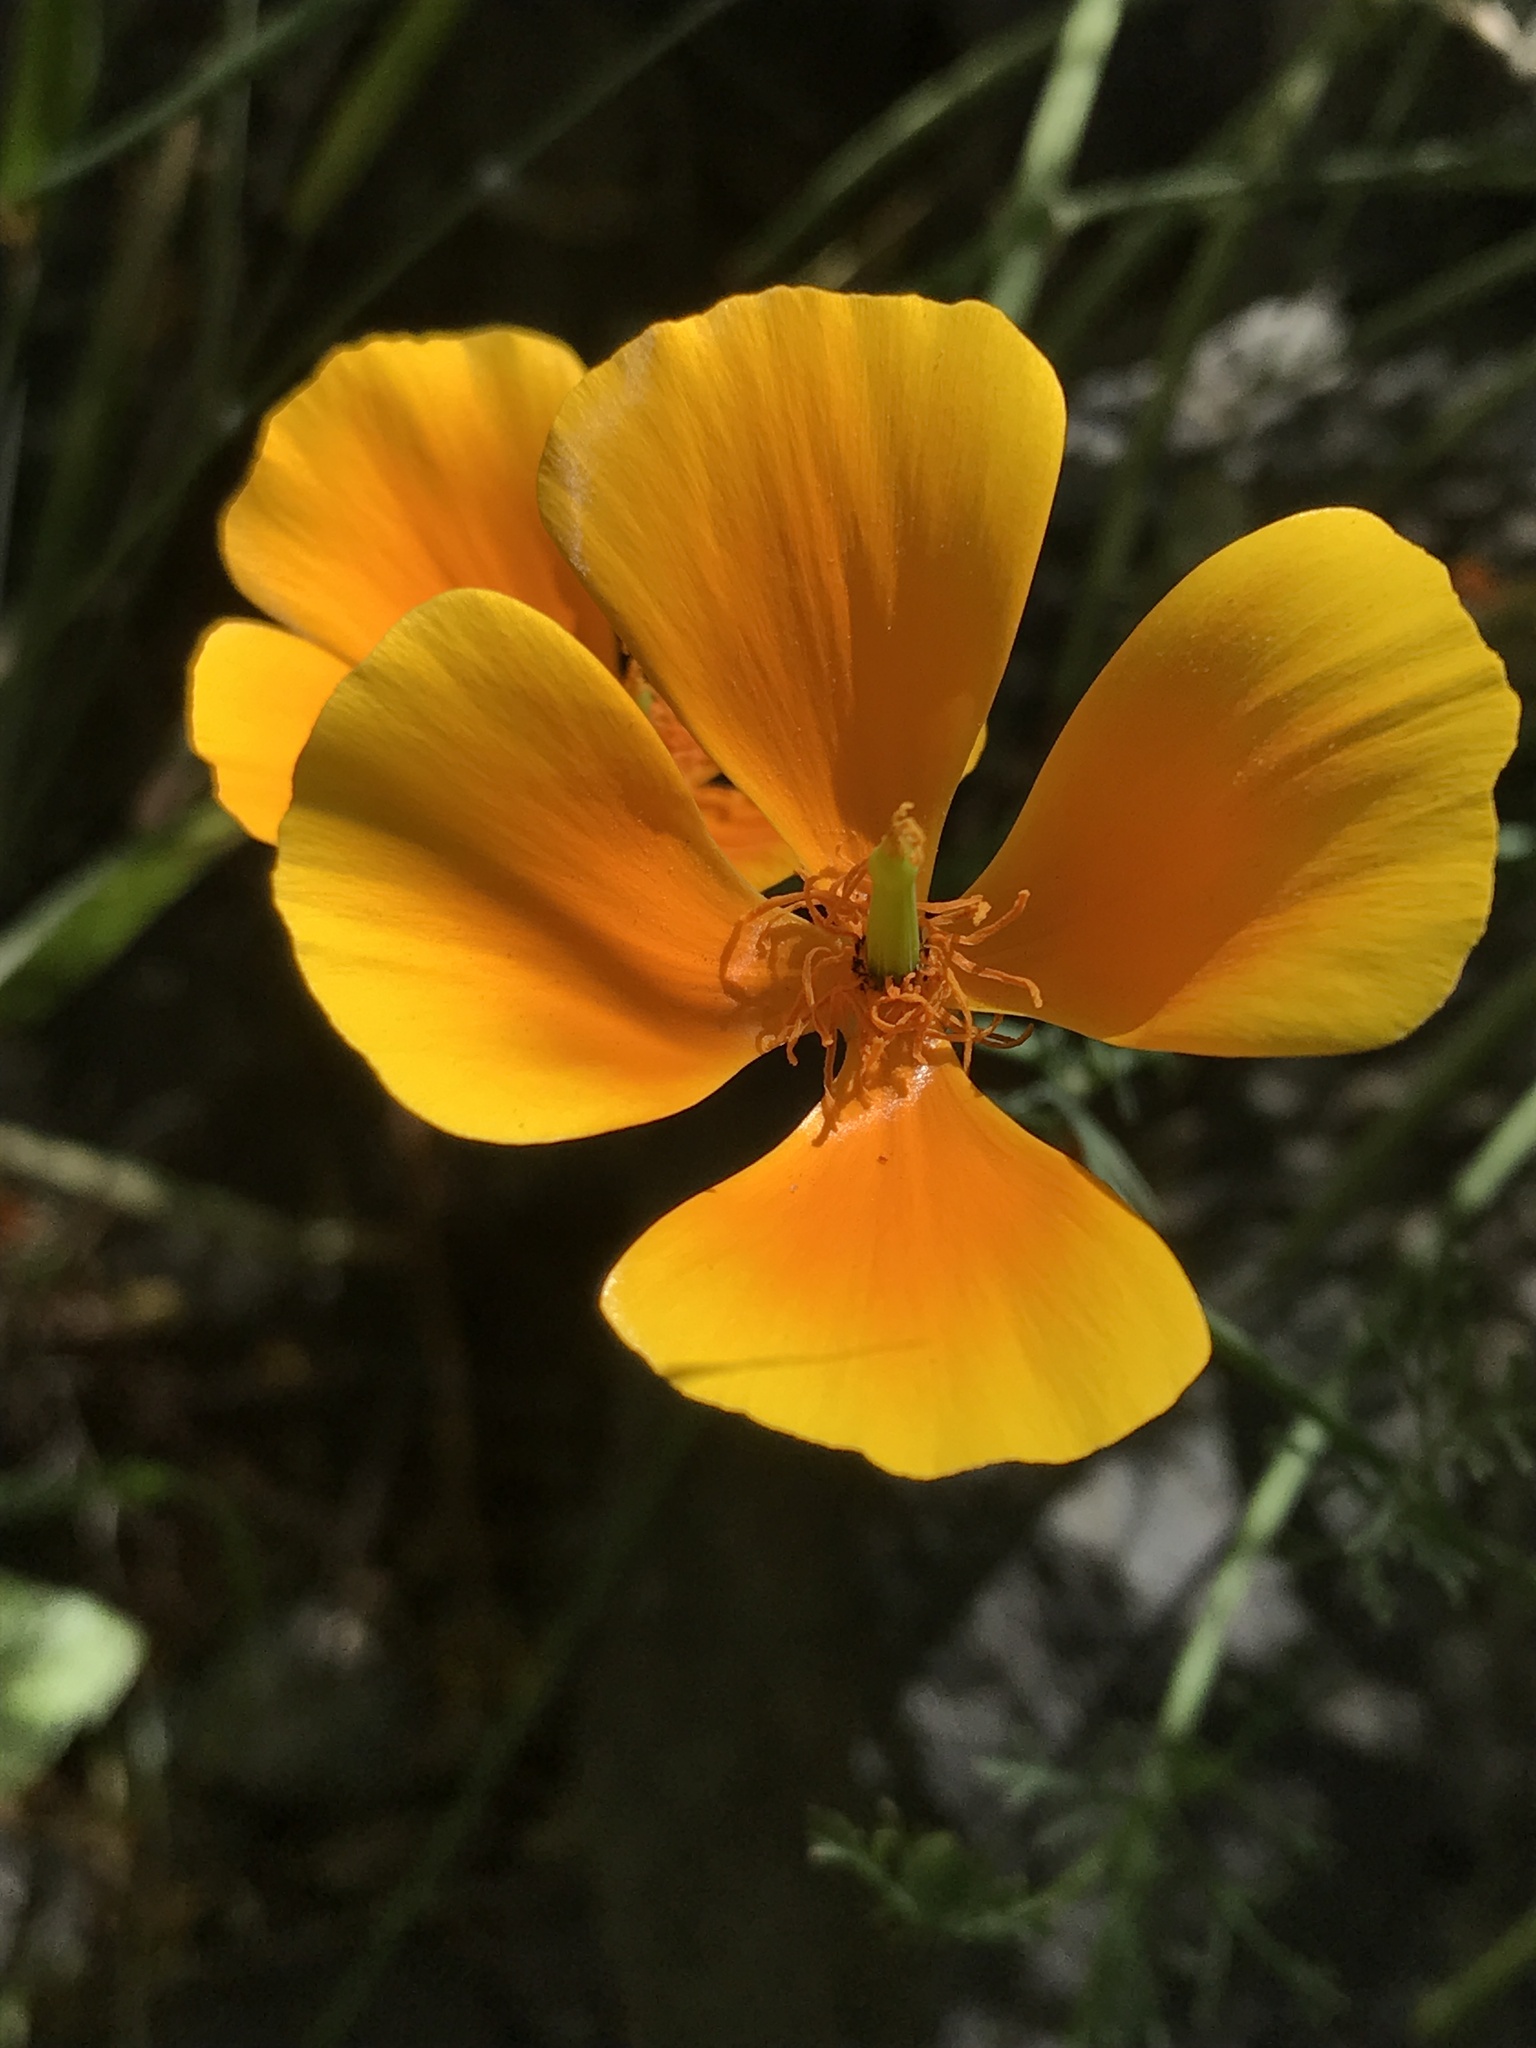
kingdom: Plantae
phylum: Tracheophyta
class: Magnoliopsida
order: Ranunculales
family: Papaveraceae
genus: Eschscholzia
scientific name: Eschscholzia californica
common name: California poppy
